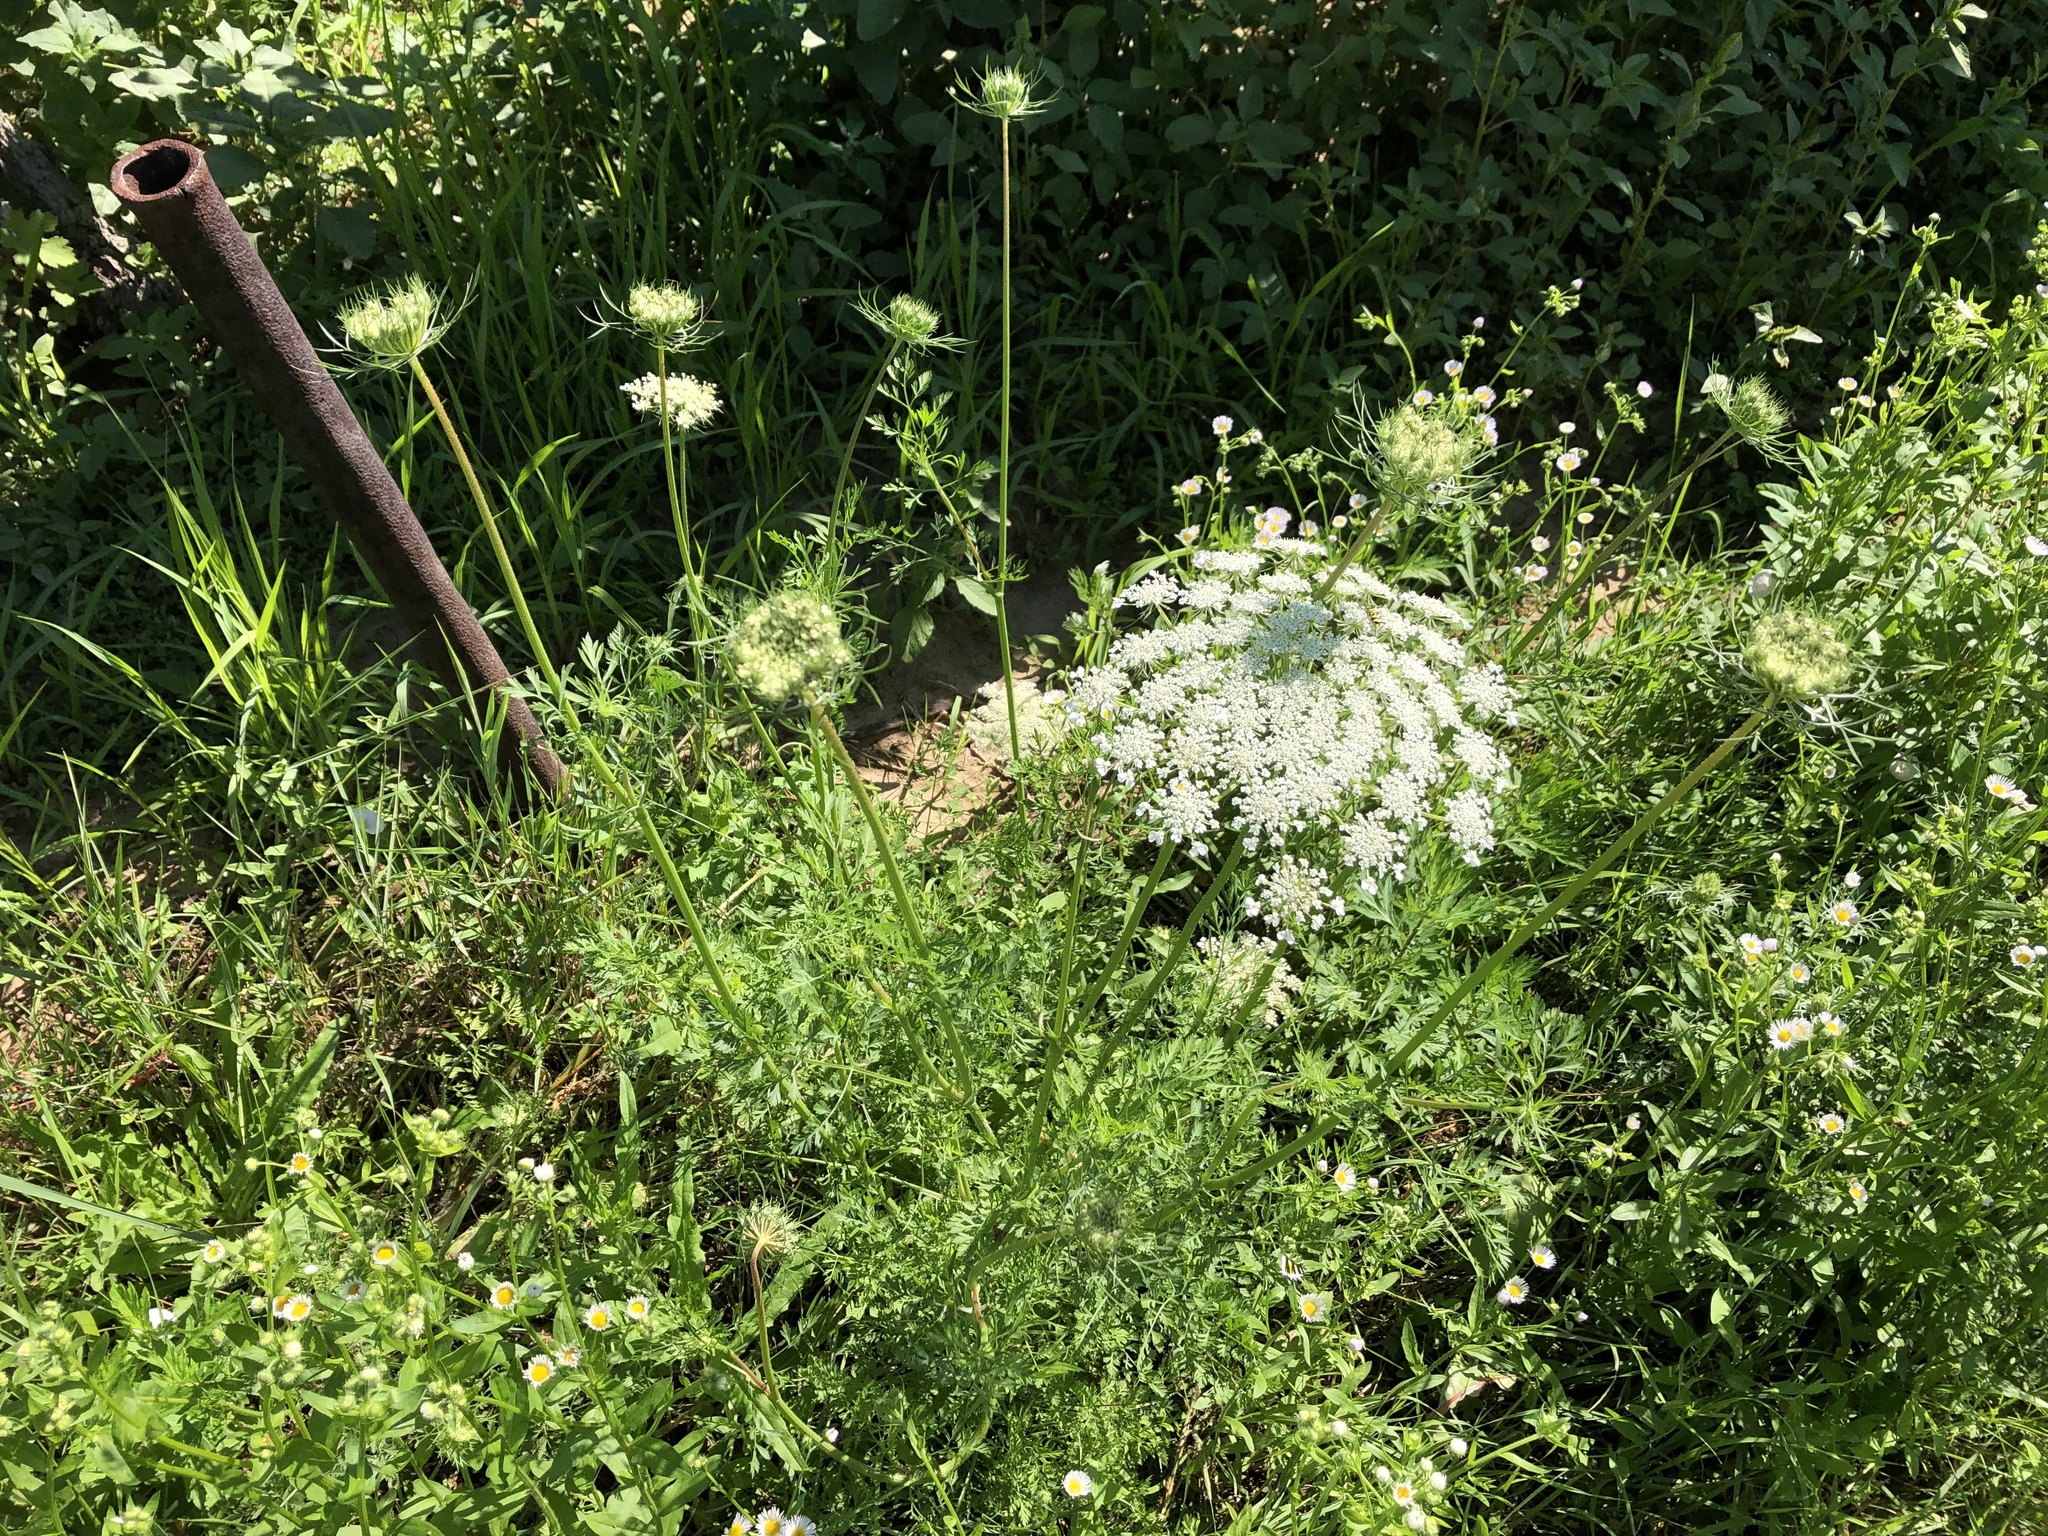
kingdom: Plantae
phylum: Tracheophyta
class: Magnoliopsida
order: Apiales
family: Apiaceae
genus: Daucus
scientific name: Daucus carota
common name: Wild carrot
